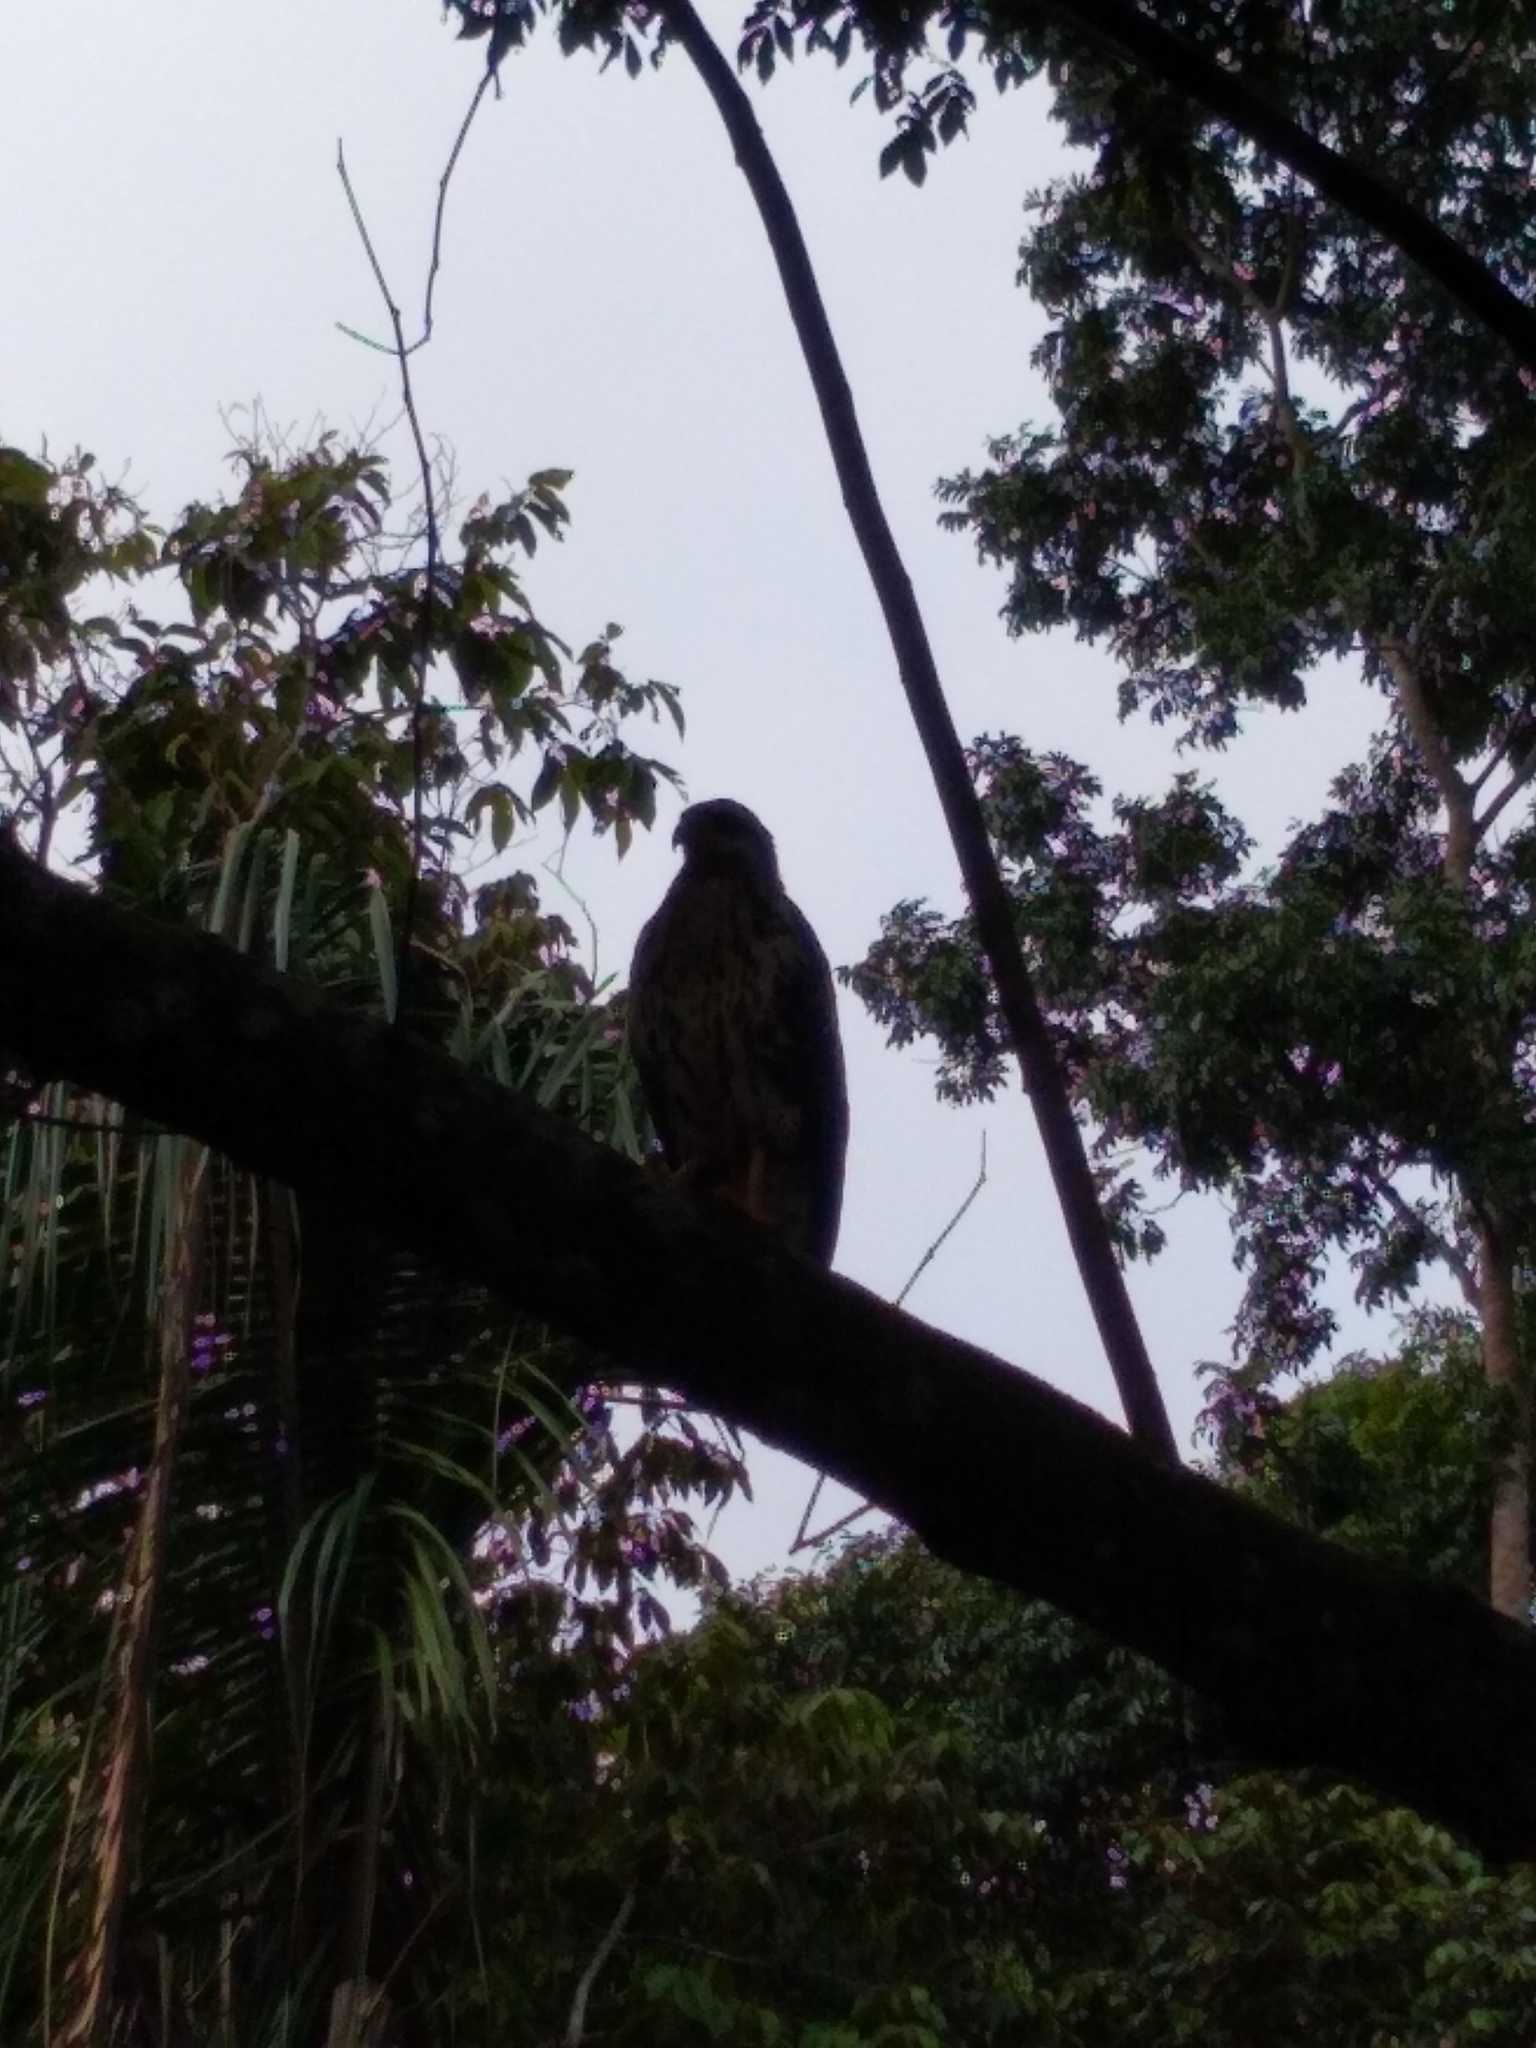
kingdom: Animalia
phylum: Chordata
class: Aves
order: Accipitriformes
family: Accipitridae
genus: Buteogallus
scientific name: Buteogallus anthracinus
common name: Common black hawk
